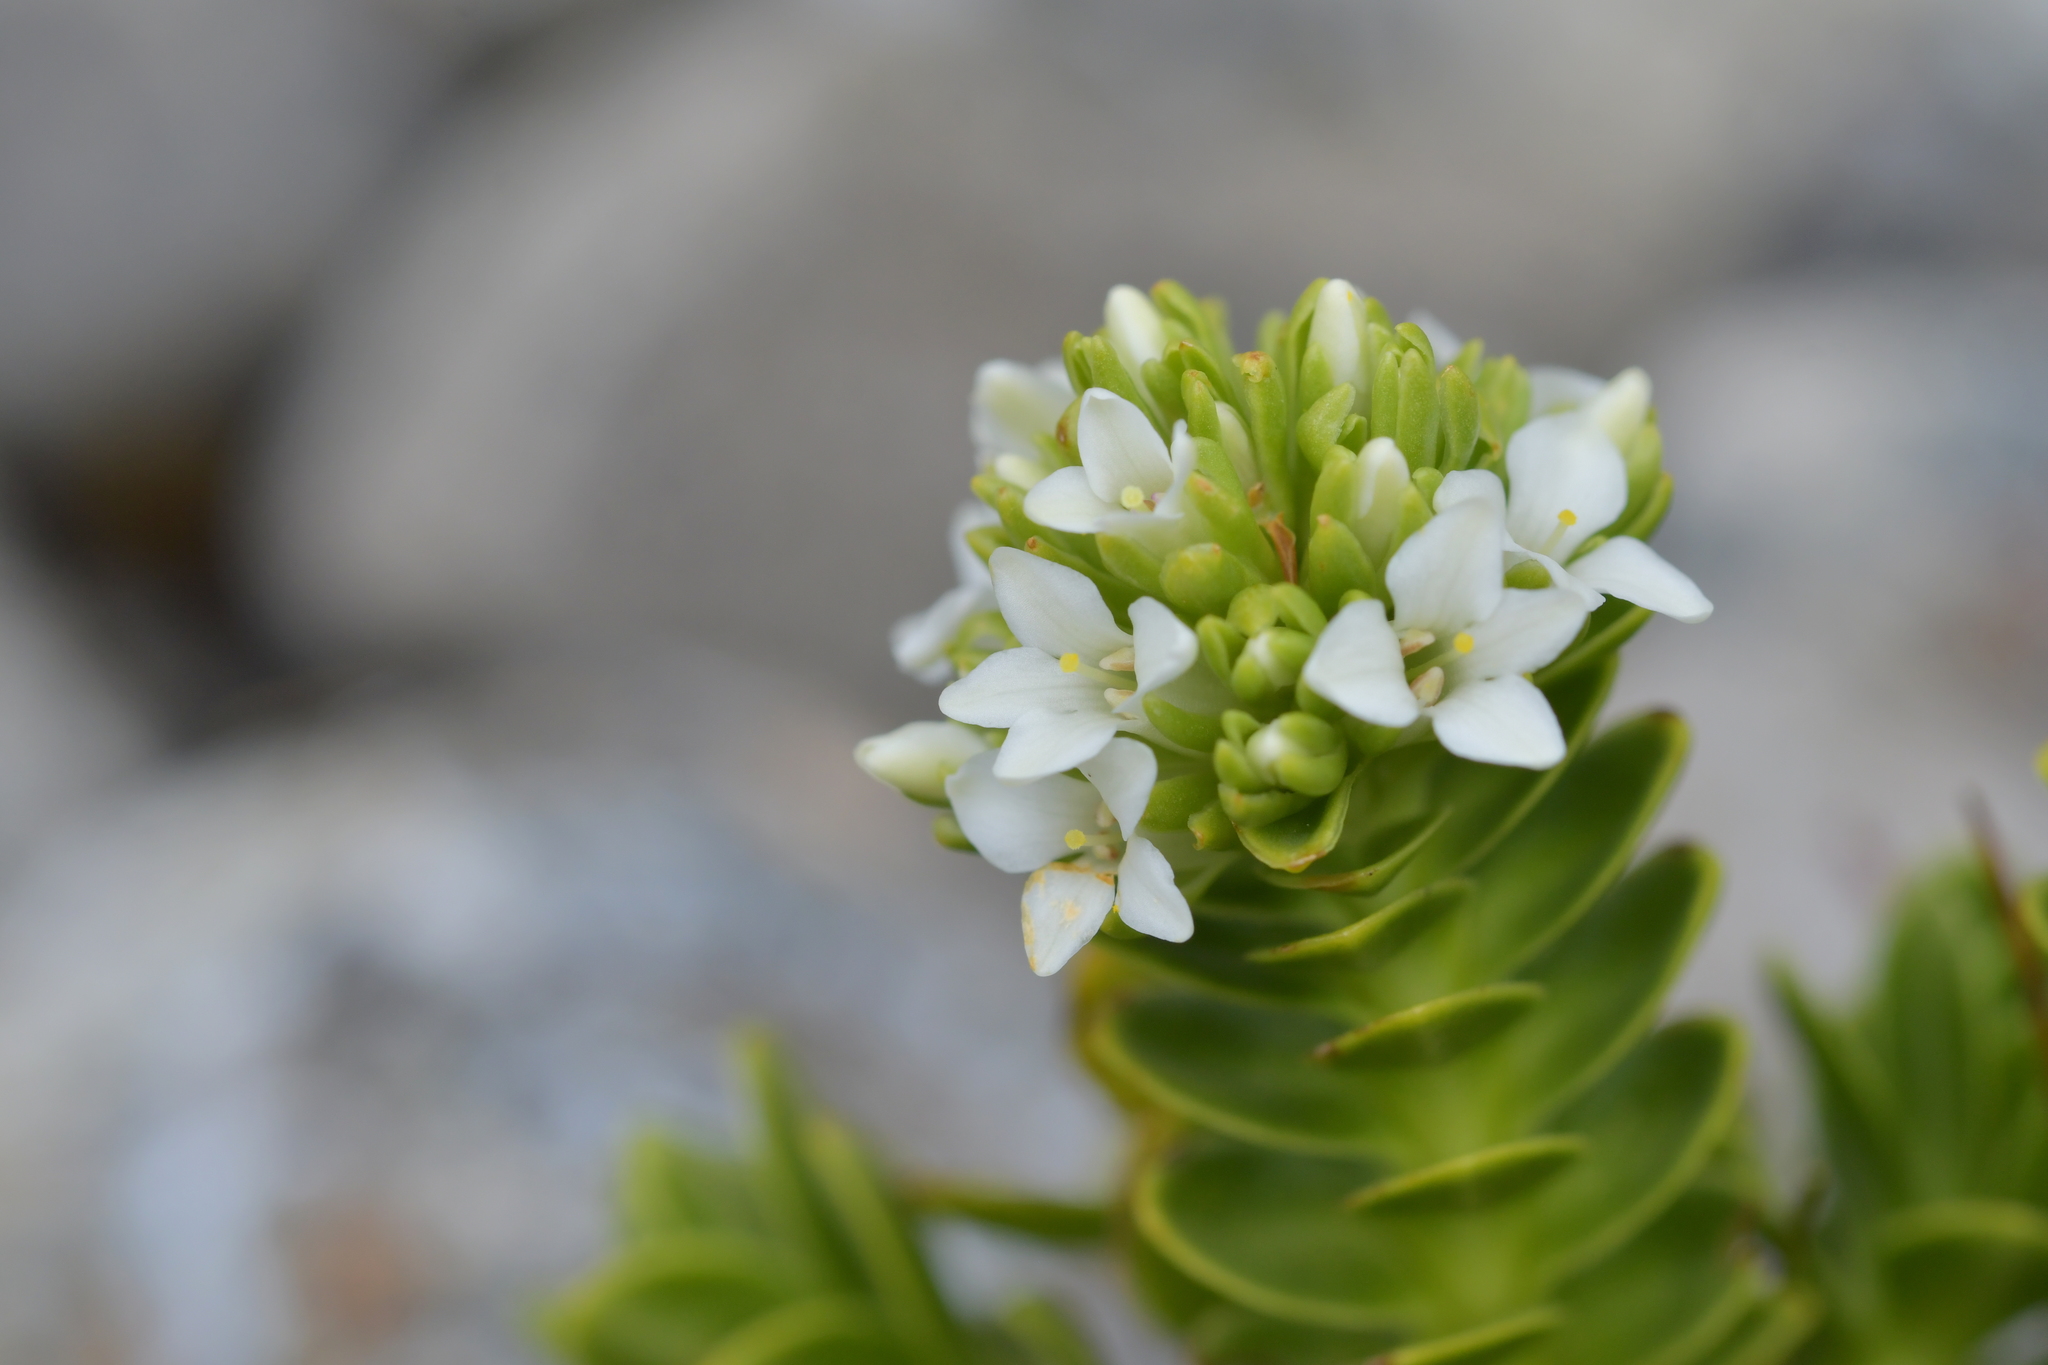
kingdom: Plantae
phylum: Tracheophyta
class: Magnoliopsida
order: Lamiales
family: Plantaginaceae
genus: Veronica
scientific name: Veronica macrocalyx
